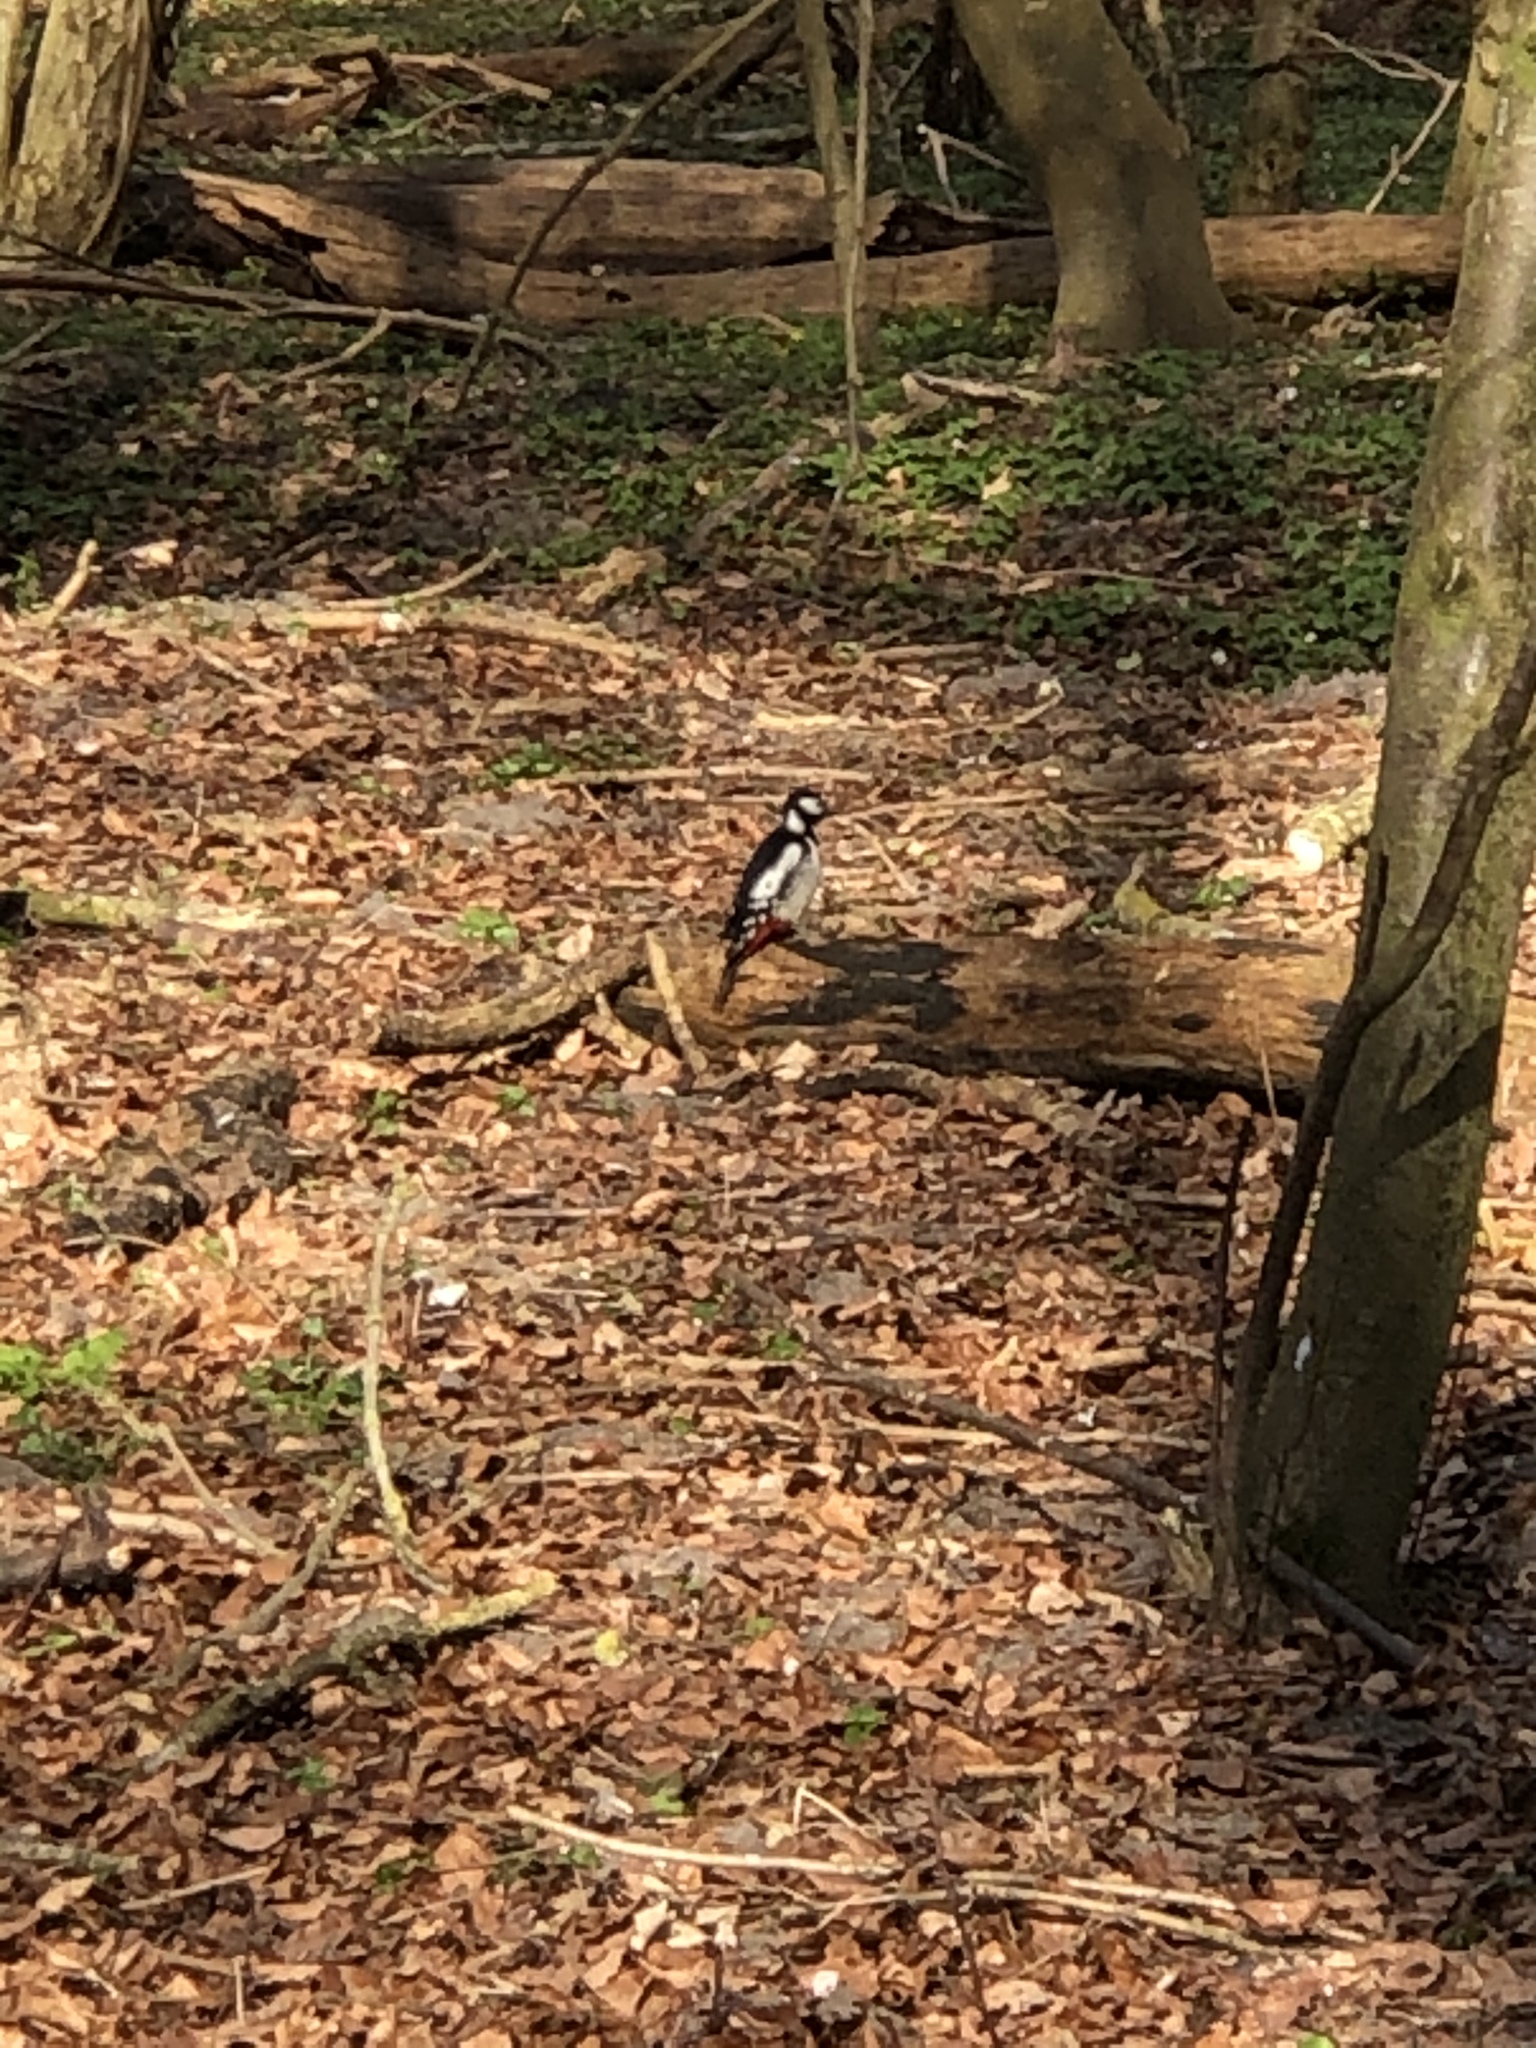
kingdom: Animalia
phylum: Chordata
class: Aves
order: Piciformes
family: Picidae
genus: Dendrocopos
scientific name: Dendrocopos major
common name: Great spotted woodpecker
